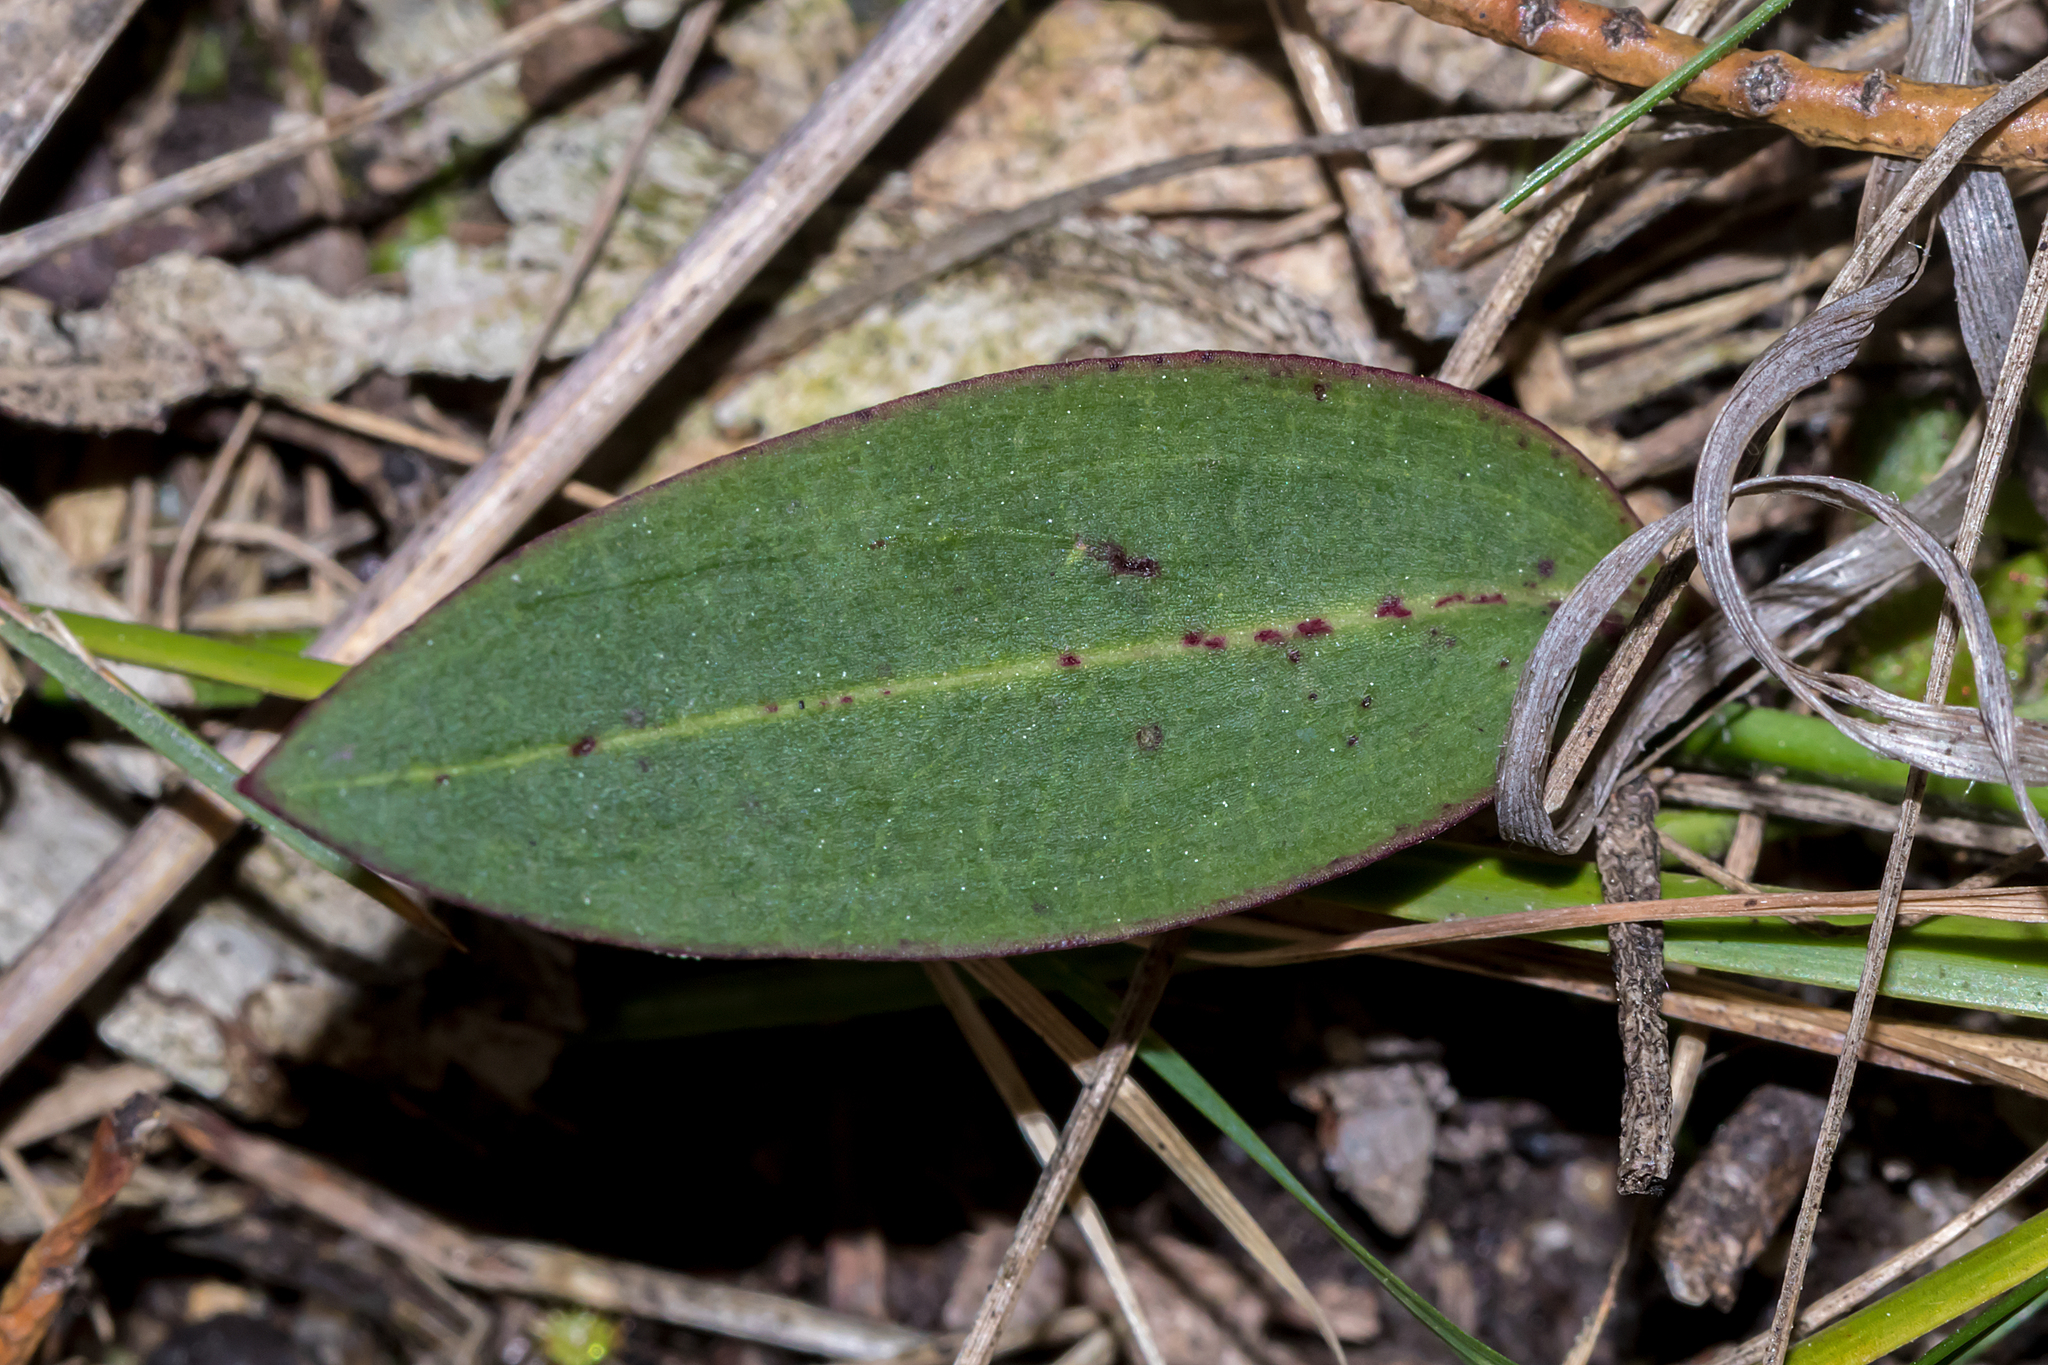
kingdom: Plantae
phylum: Tracheophyta
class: Liliopsida
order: Asparagales
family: Orchidaceae
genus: Cryptostylis
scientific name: Cryptostylis leptochila
